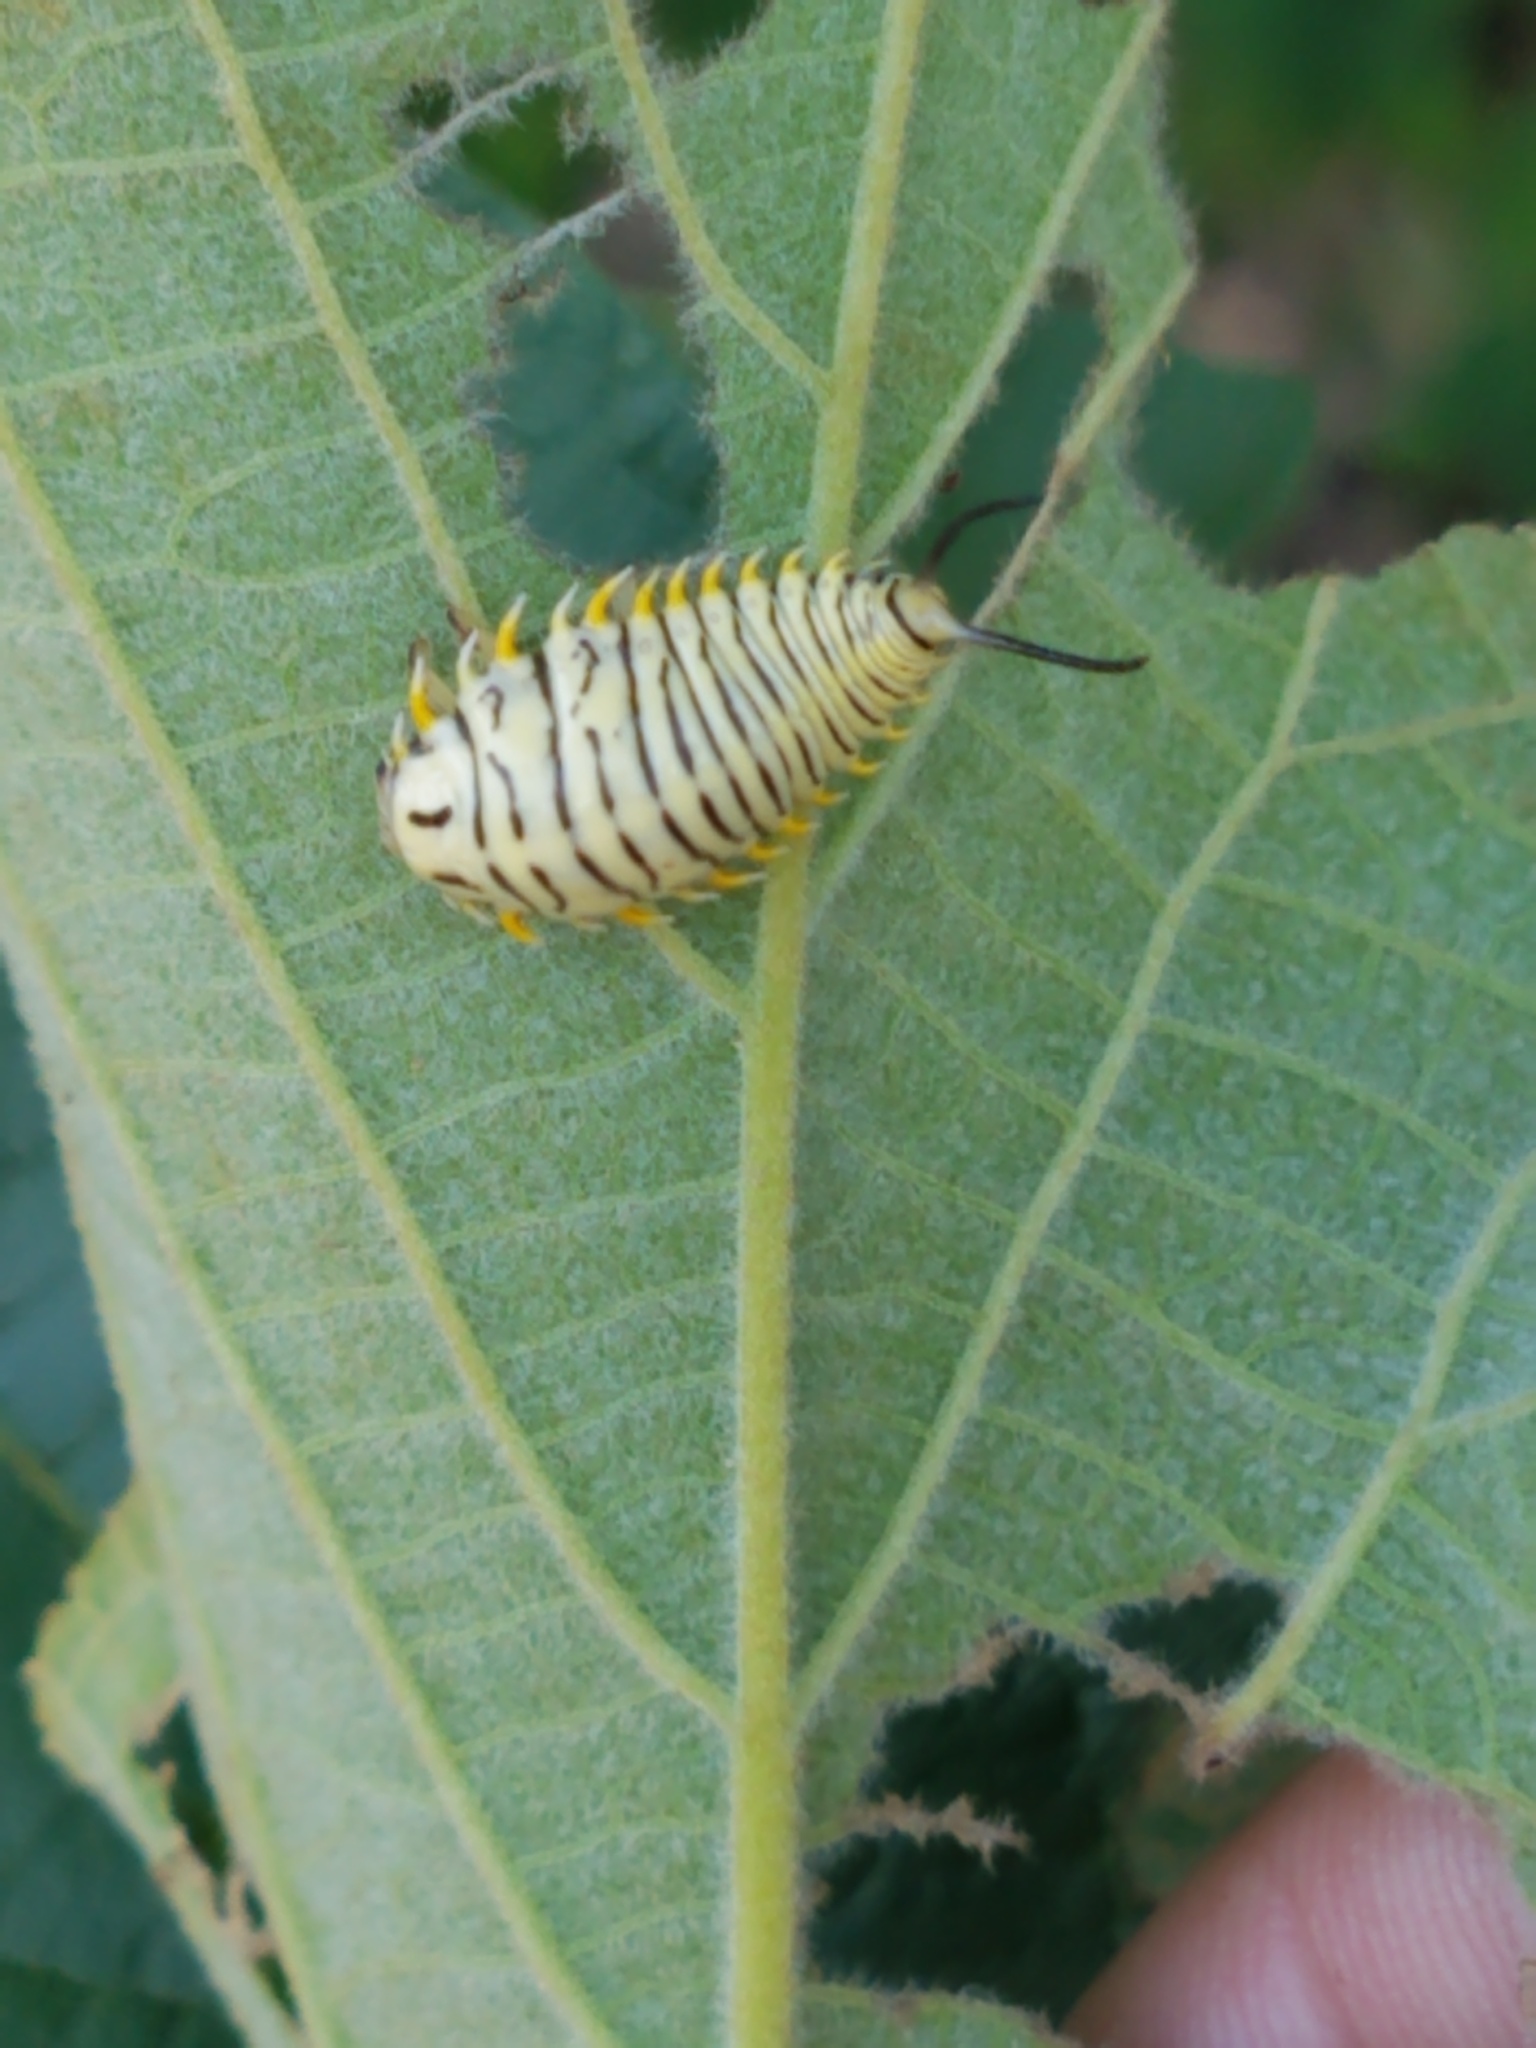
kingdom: Animalia
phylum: Arthropoda
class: Insecta
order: Coleoptera
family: Chrysomelidae
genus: Physonota
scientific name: Physonota alutacea
